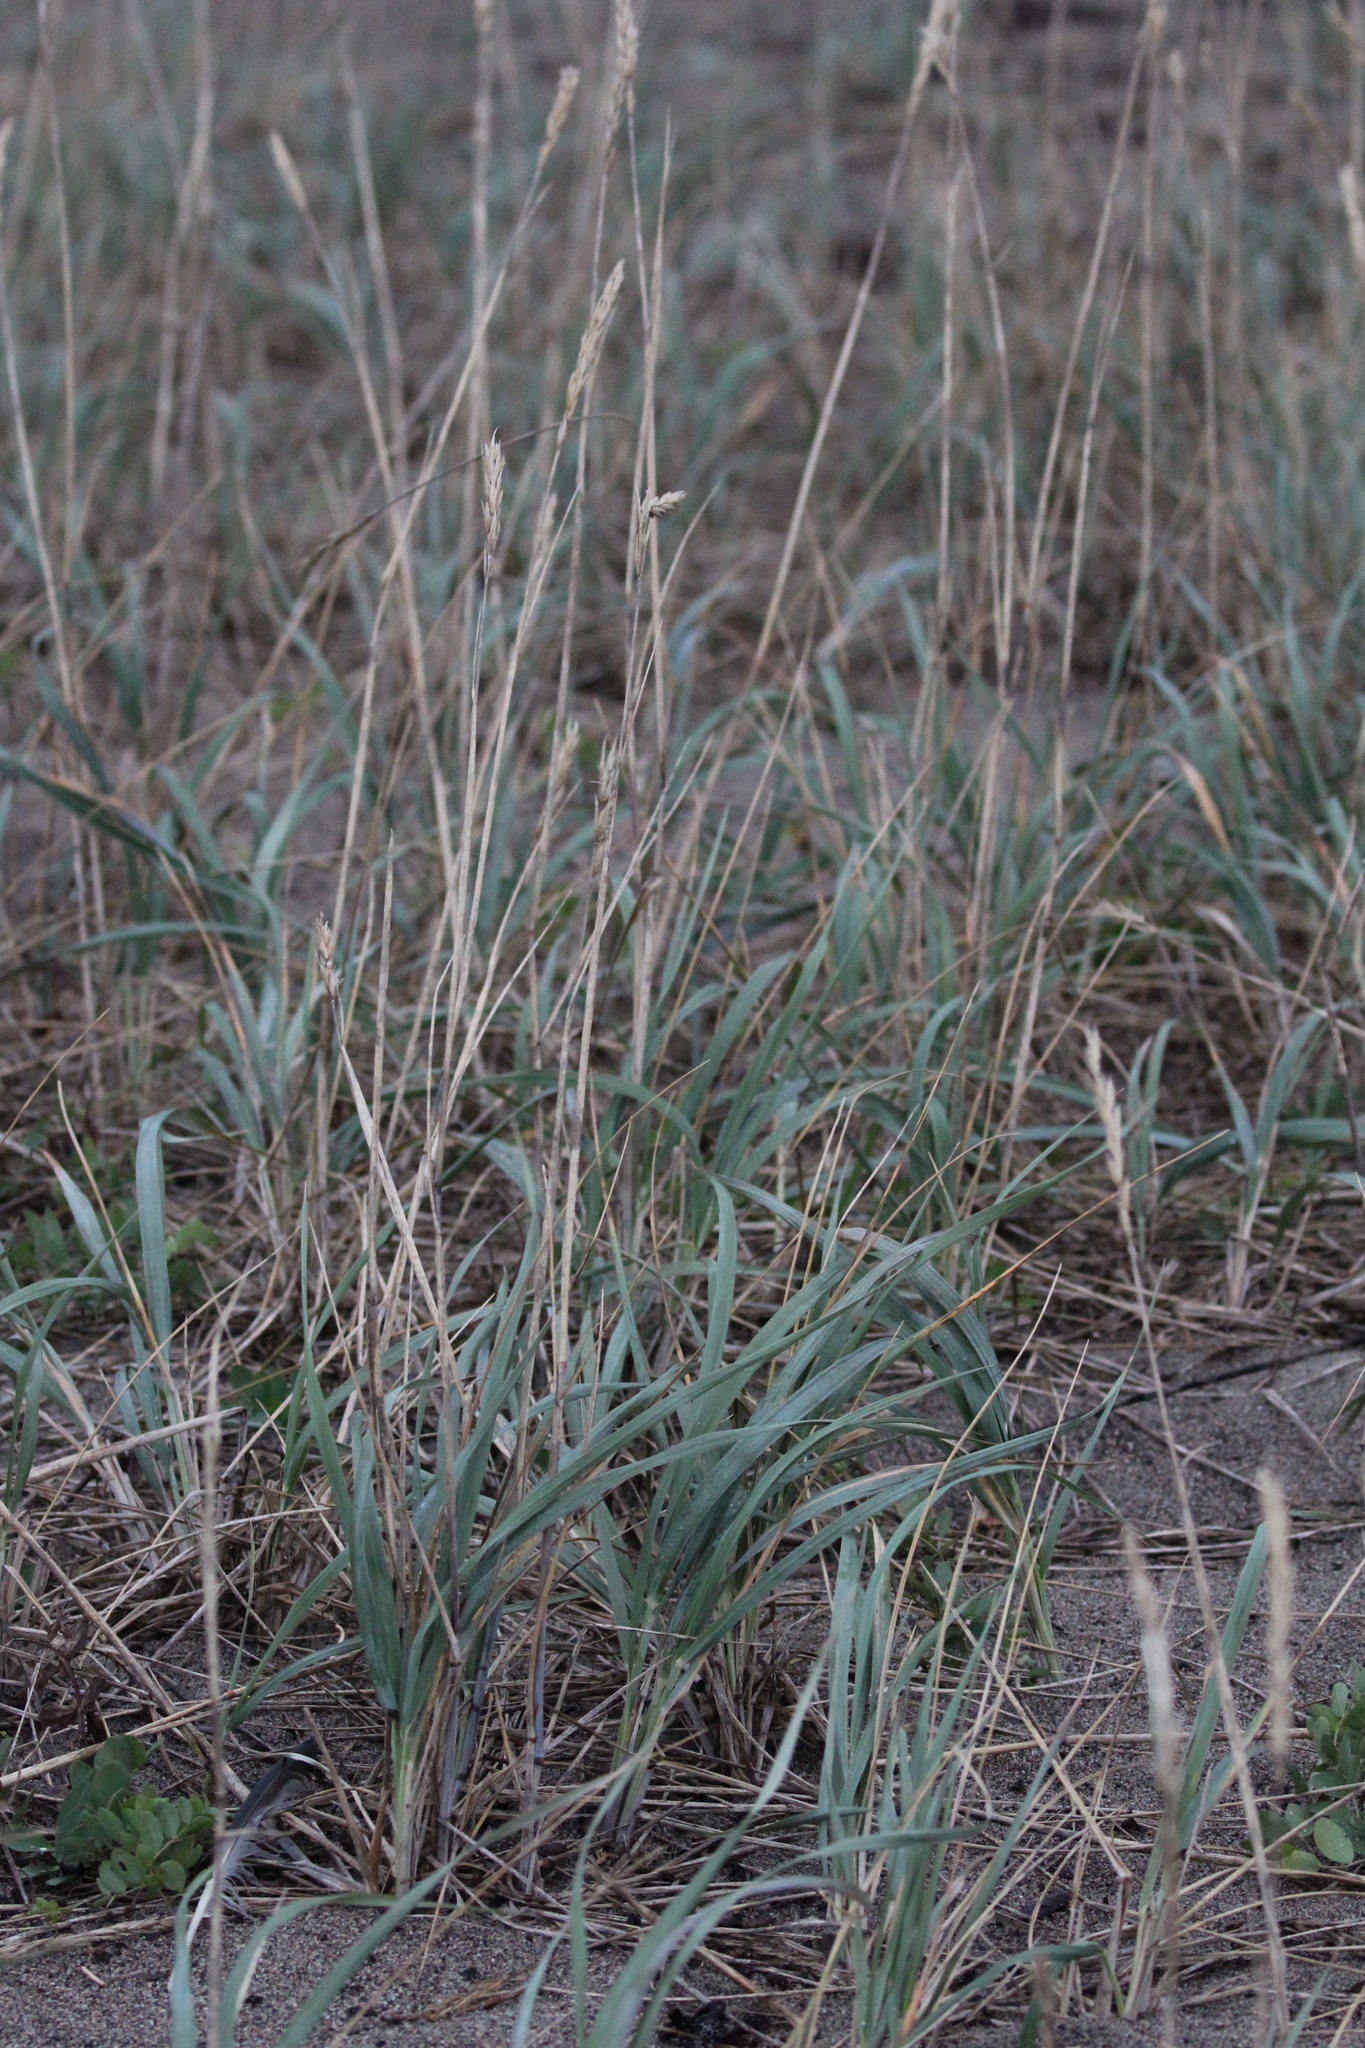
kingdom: Plantae
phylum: Tracheophyta
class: Liliopsida
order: Poales
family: Poaceae
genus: Leymus
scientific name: Leymus mollis
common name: American dune grass
